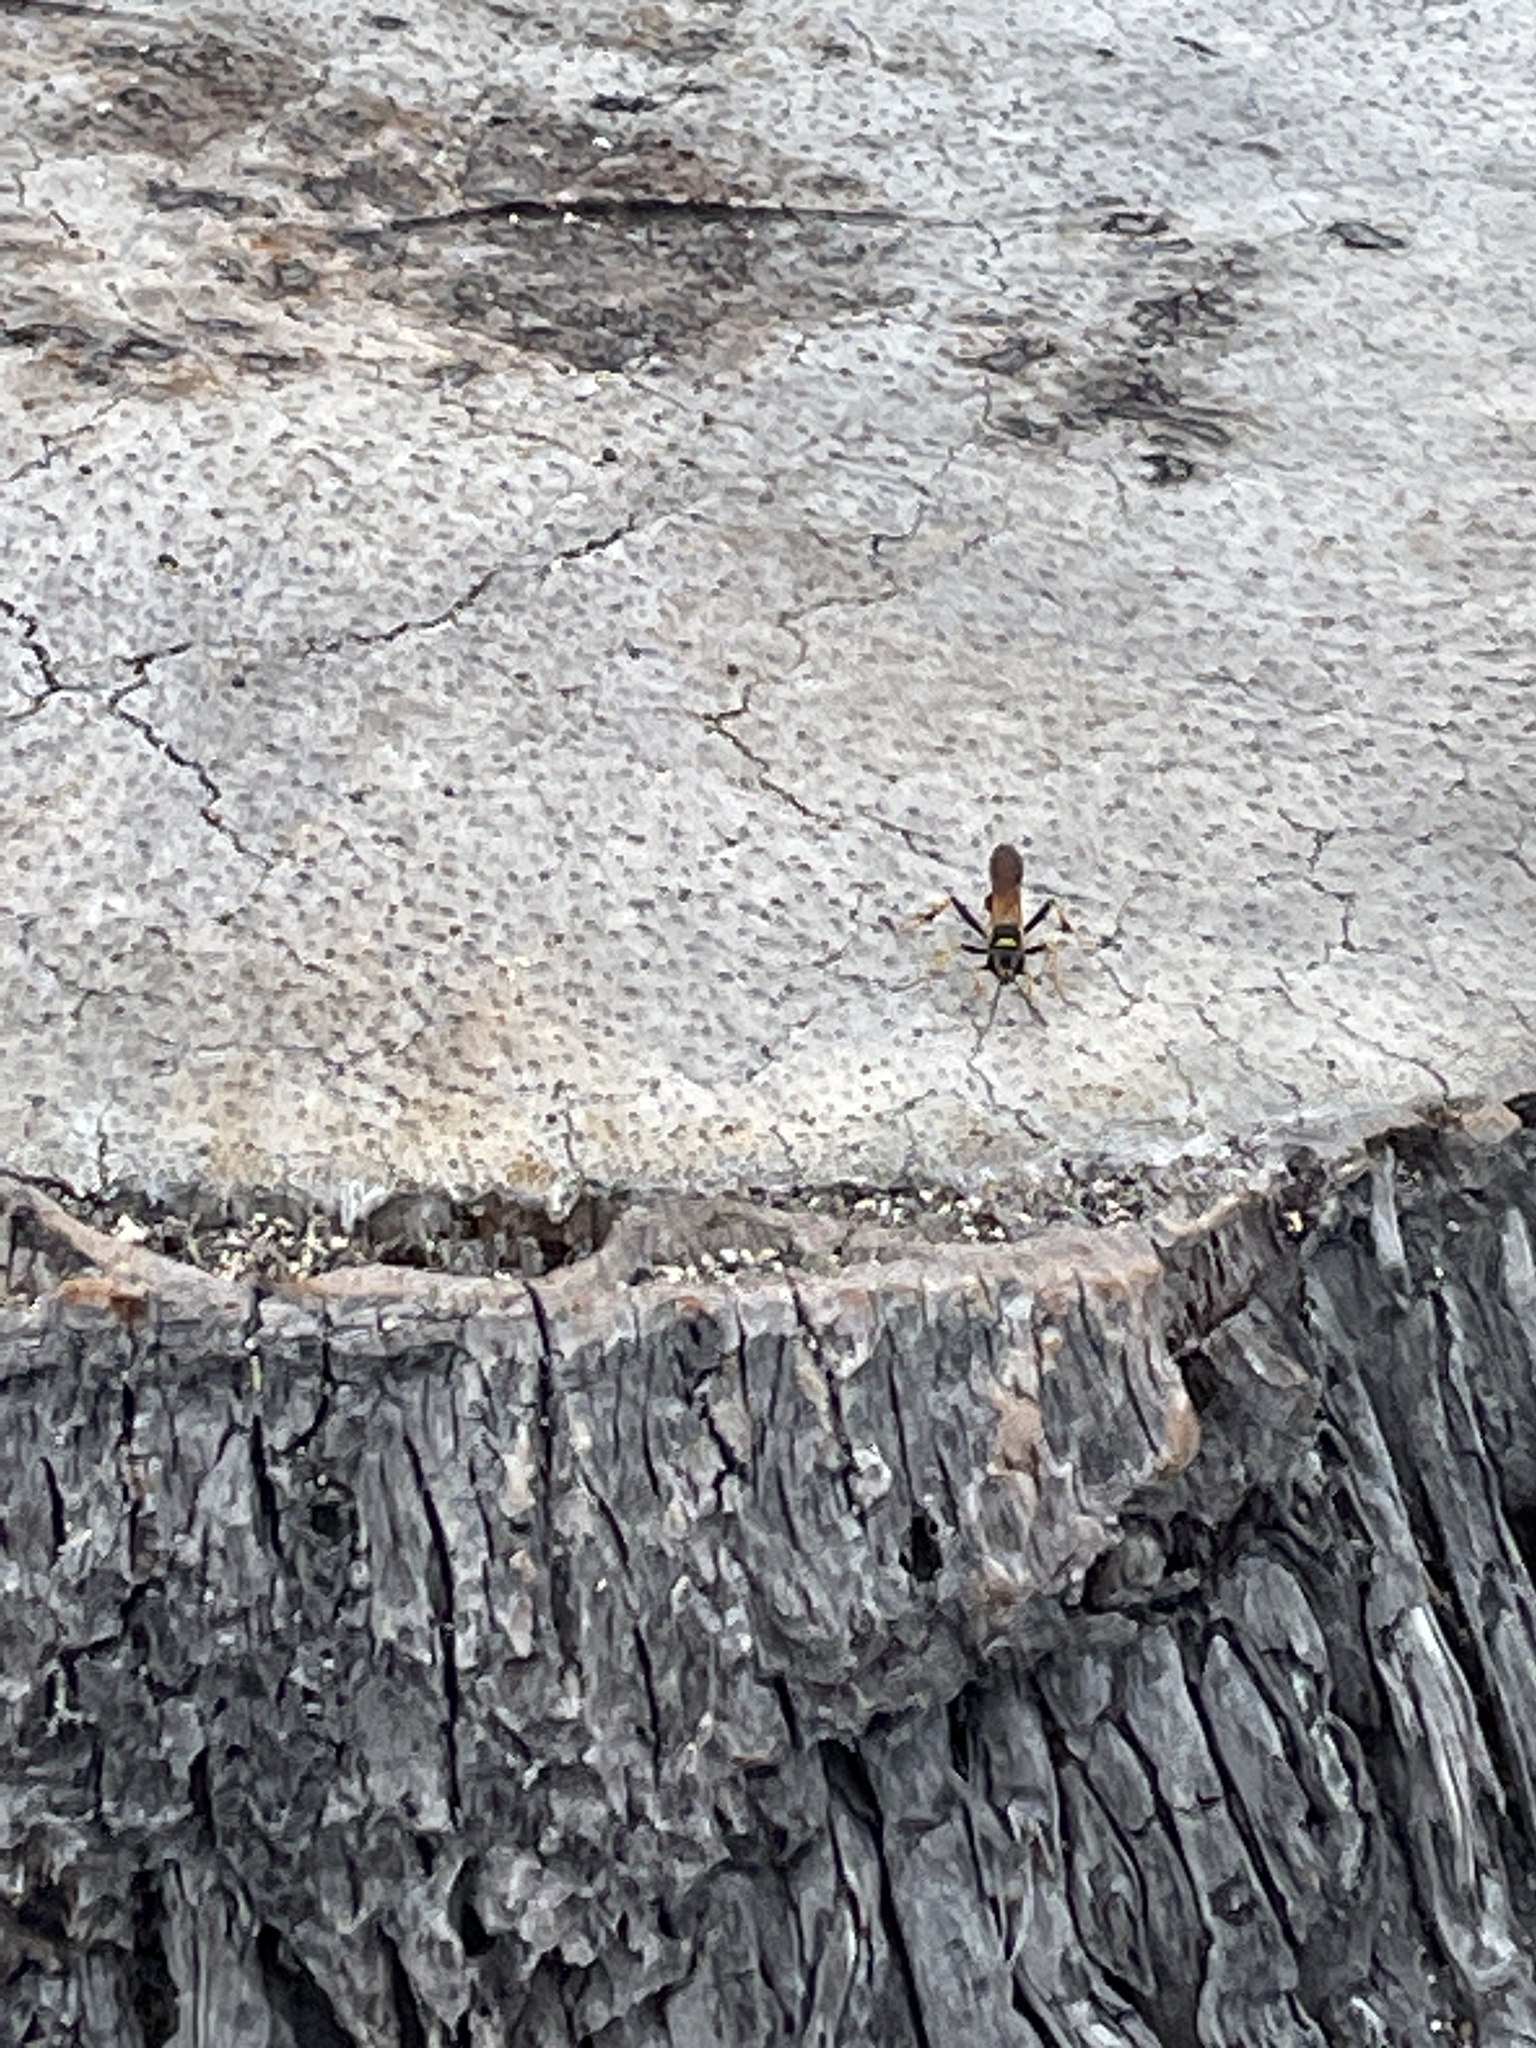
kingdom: Animalia
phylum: Arthropoda
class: Insecta
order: Hymenoptera
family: Sphecidae
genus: Sceliphron
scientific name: Sceliphron caementarium
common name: Mud dauber
